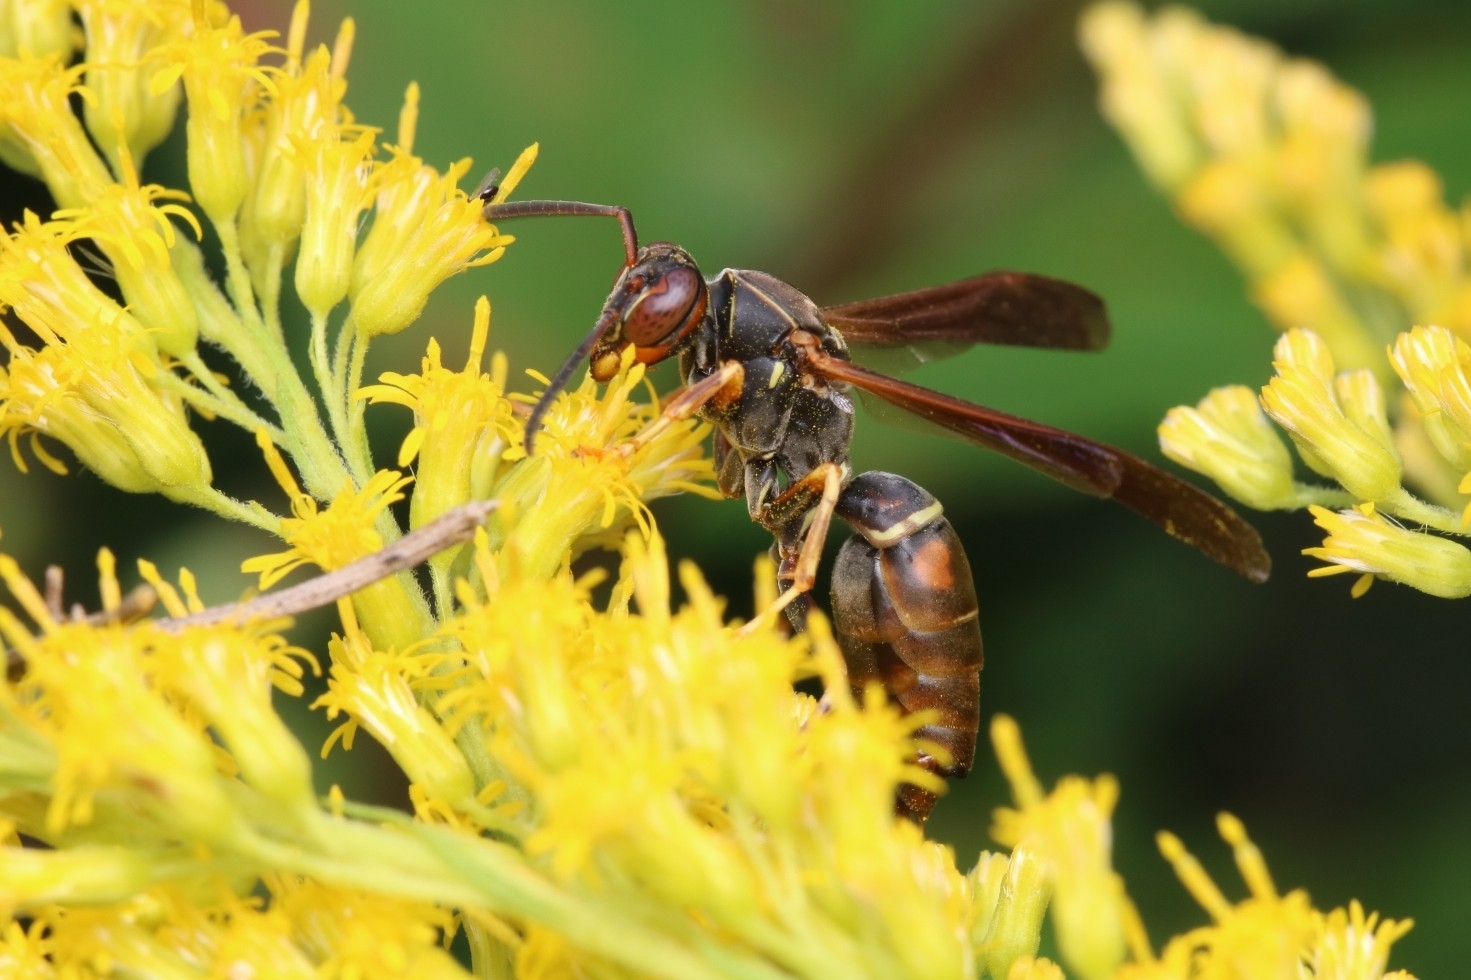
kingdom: Animalia
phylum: Arthropoda
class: Insecta
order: Strepsiptera
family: Xenidae
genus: Xenos
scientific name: Xenos pecki
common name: Twisted wing parasite
